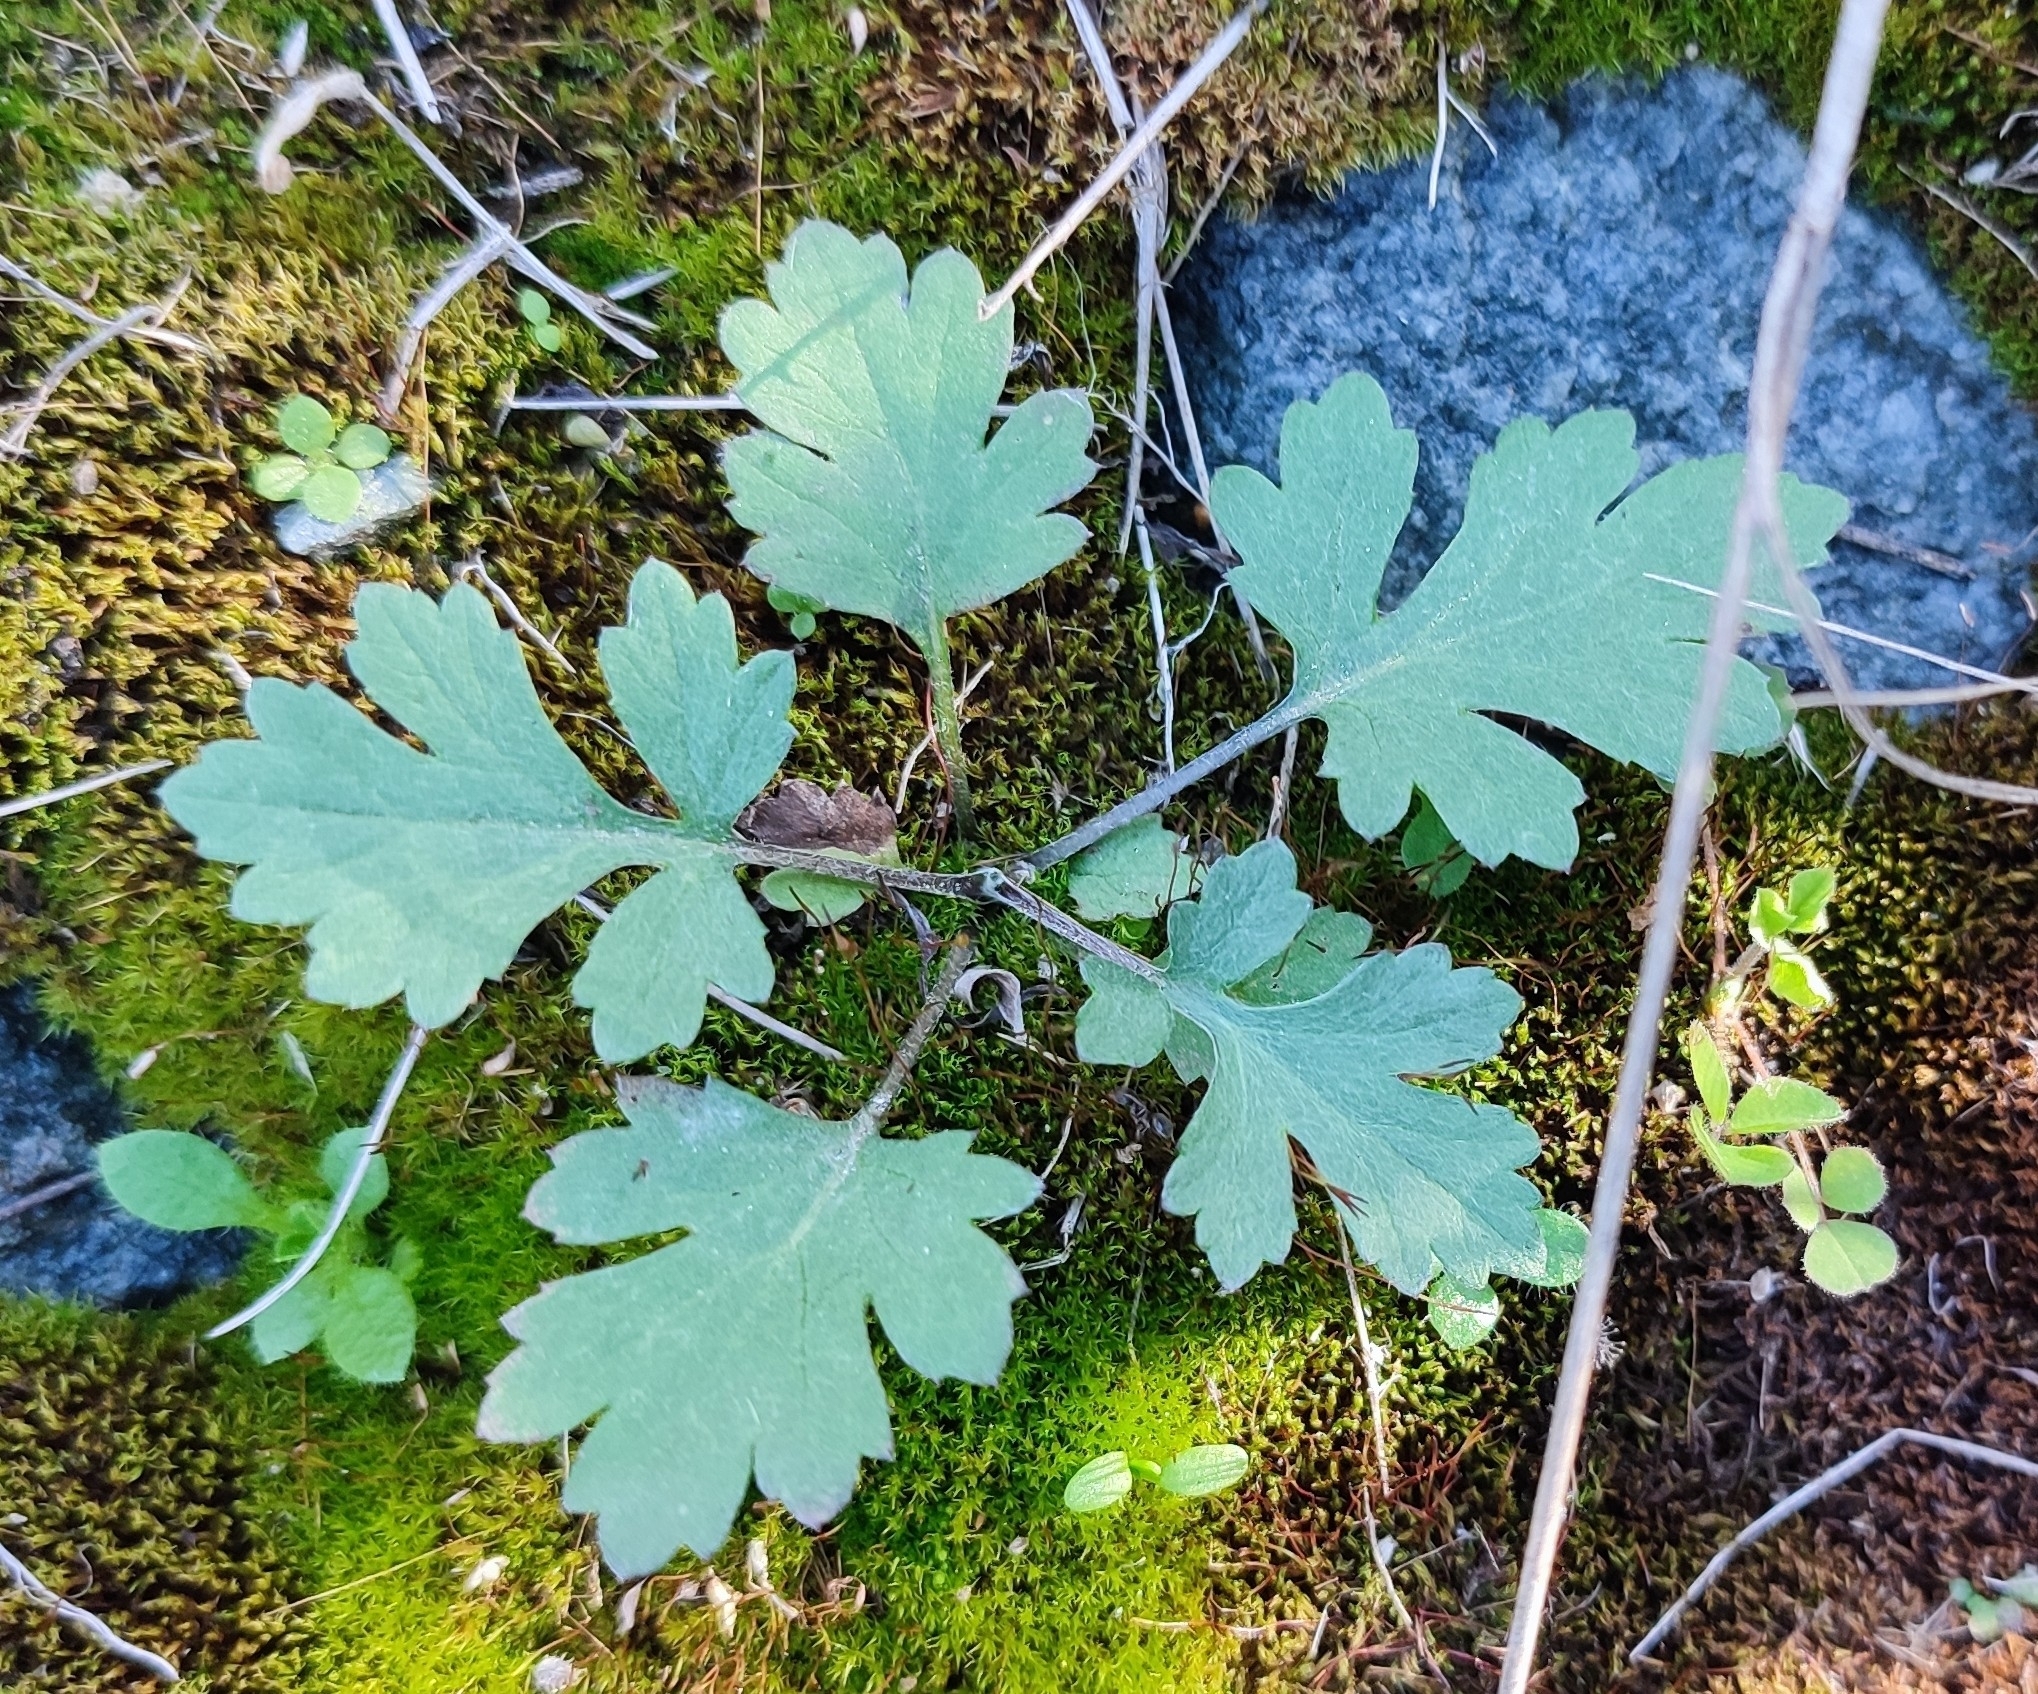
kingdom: Plantae
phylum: Tracheophyta
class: Magnoliopsida
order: Asterales
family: Asteraceae
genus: Artemisia
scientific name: Artemisia vulgaris
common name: Mugwort
